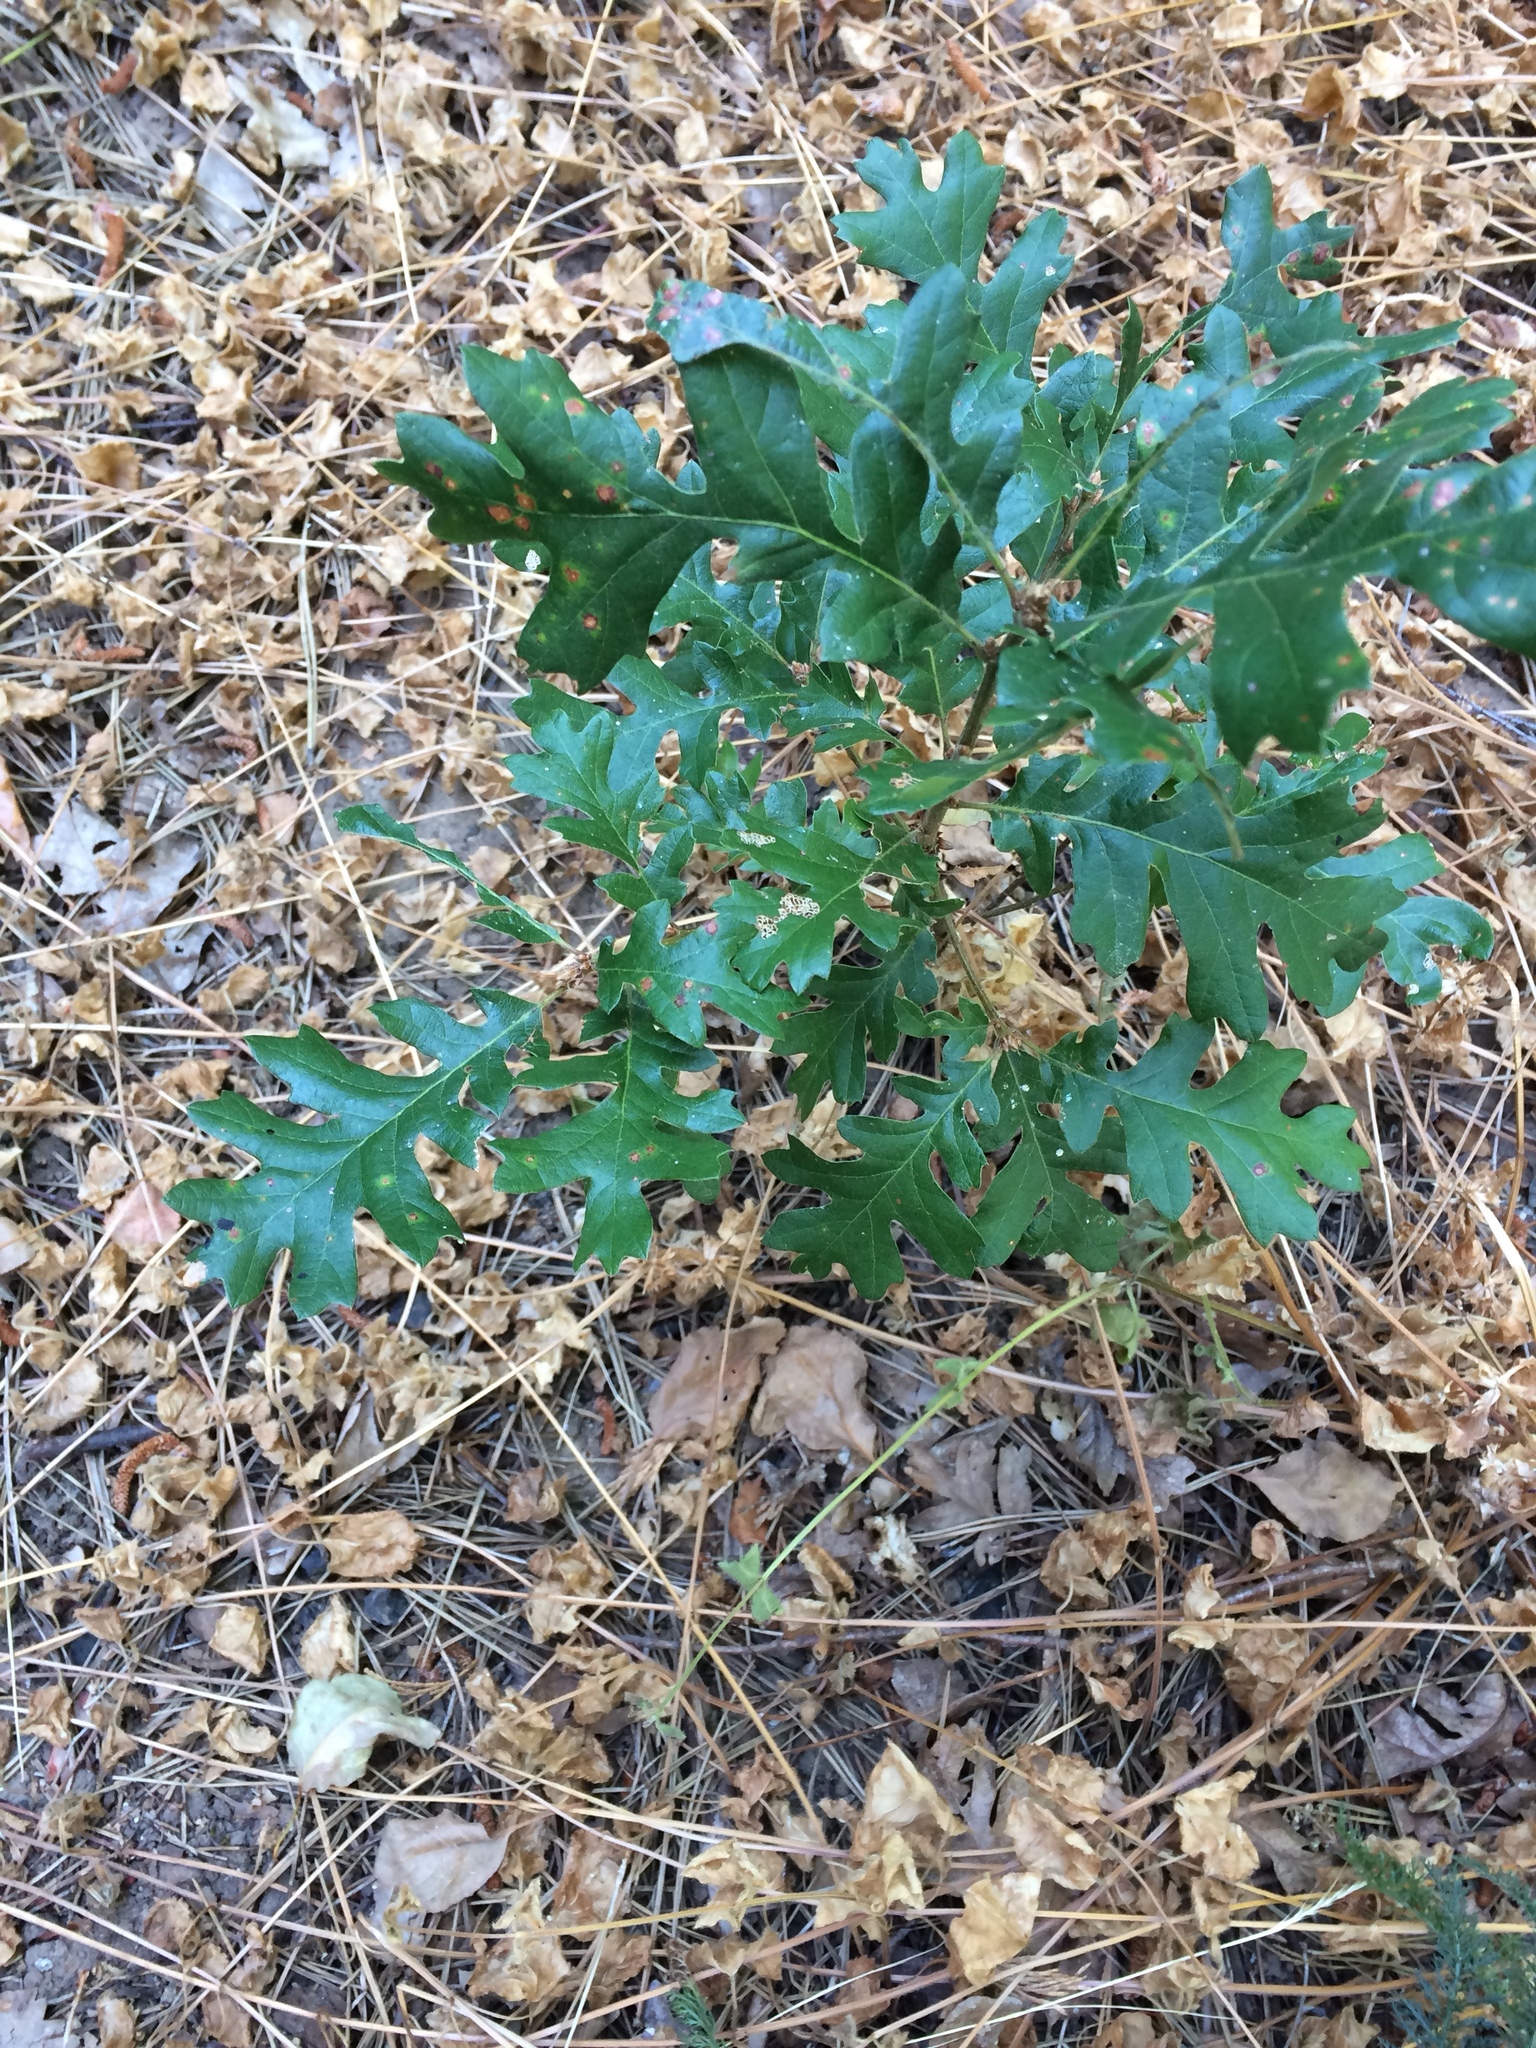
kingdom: Plantae
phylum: Tracheophyta
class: Magnoliopsida
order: Fagales
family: Fagaceae
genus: Quercus
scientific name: Quercus garryana
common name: Garry oak
